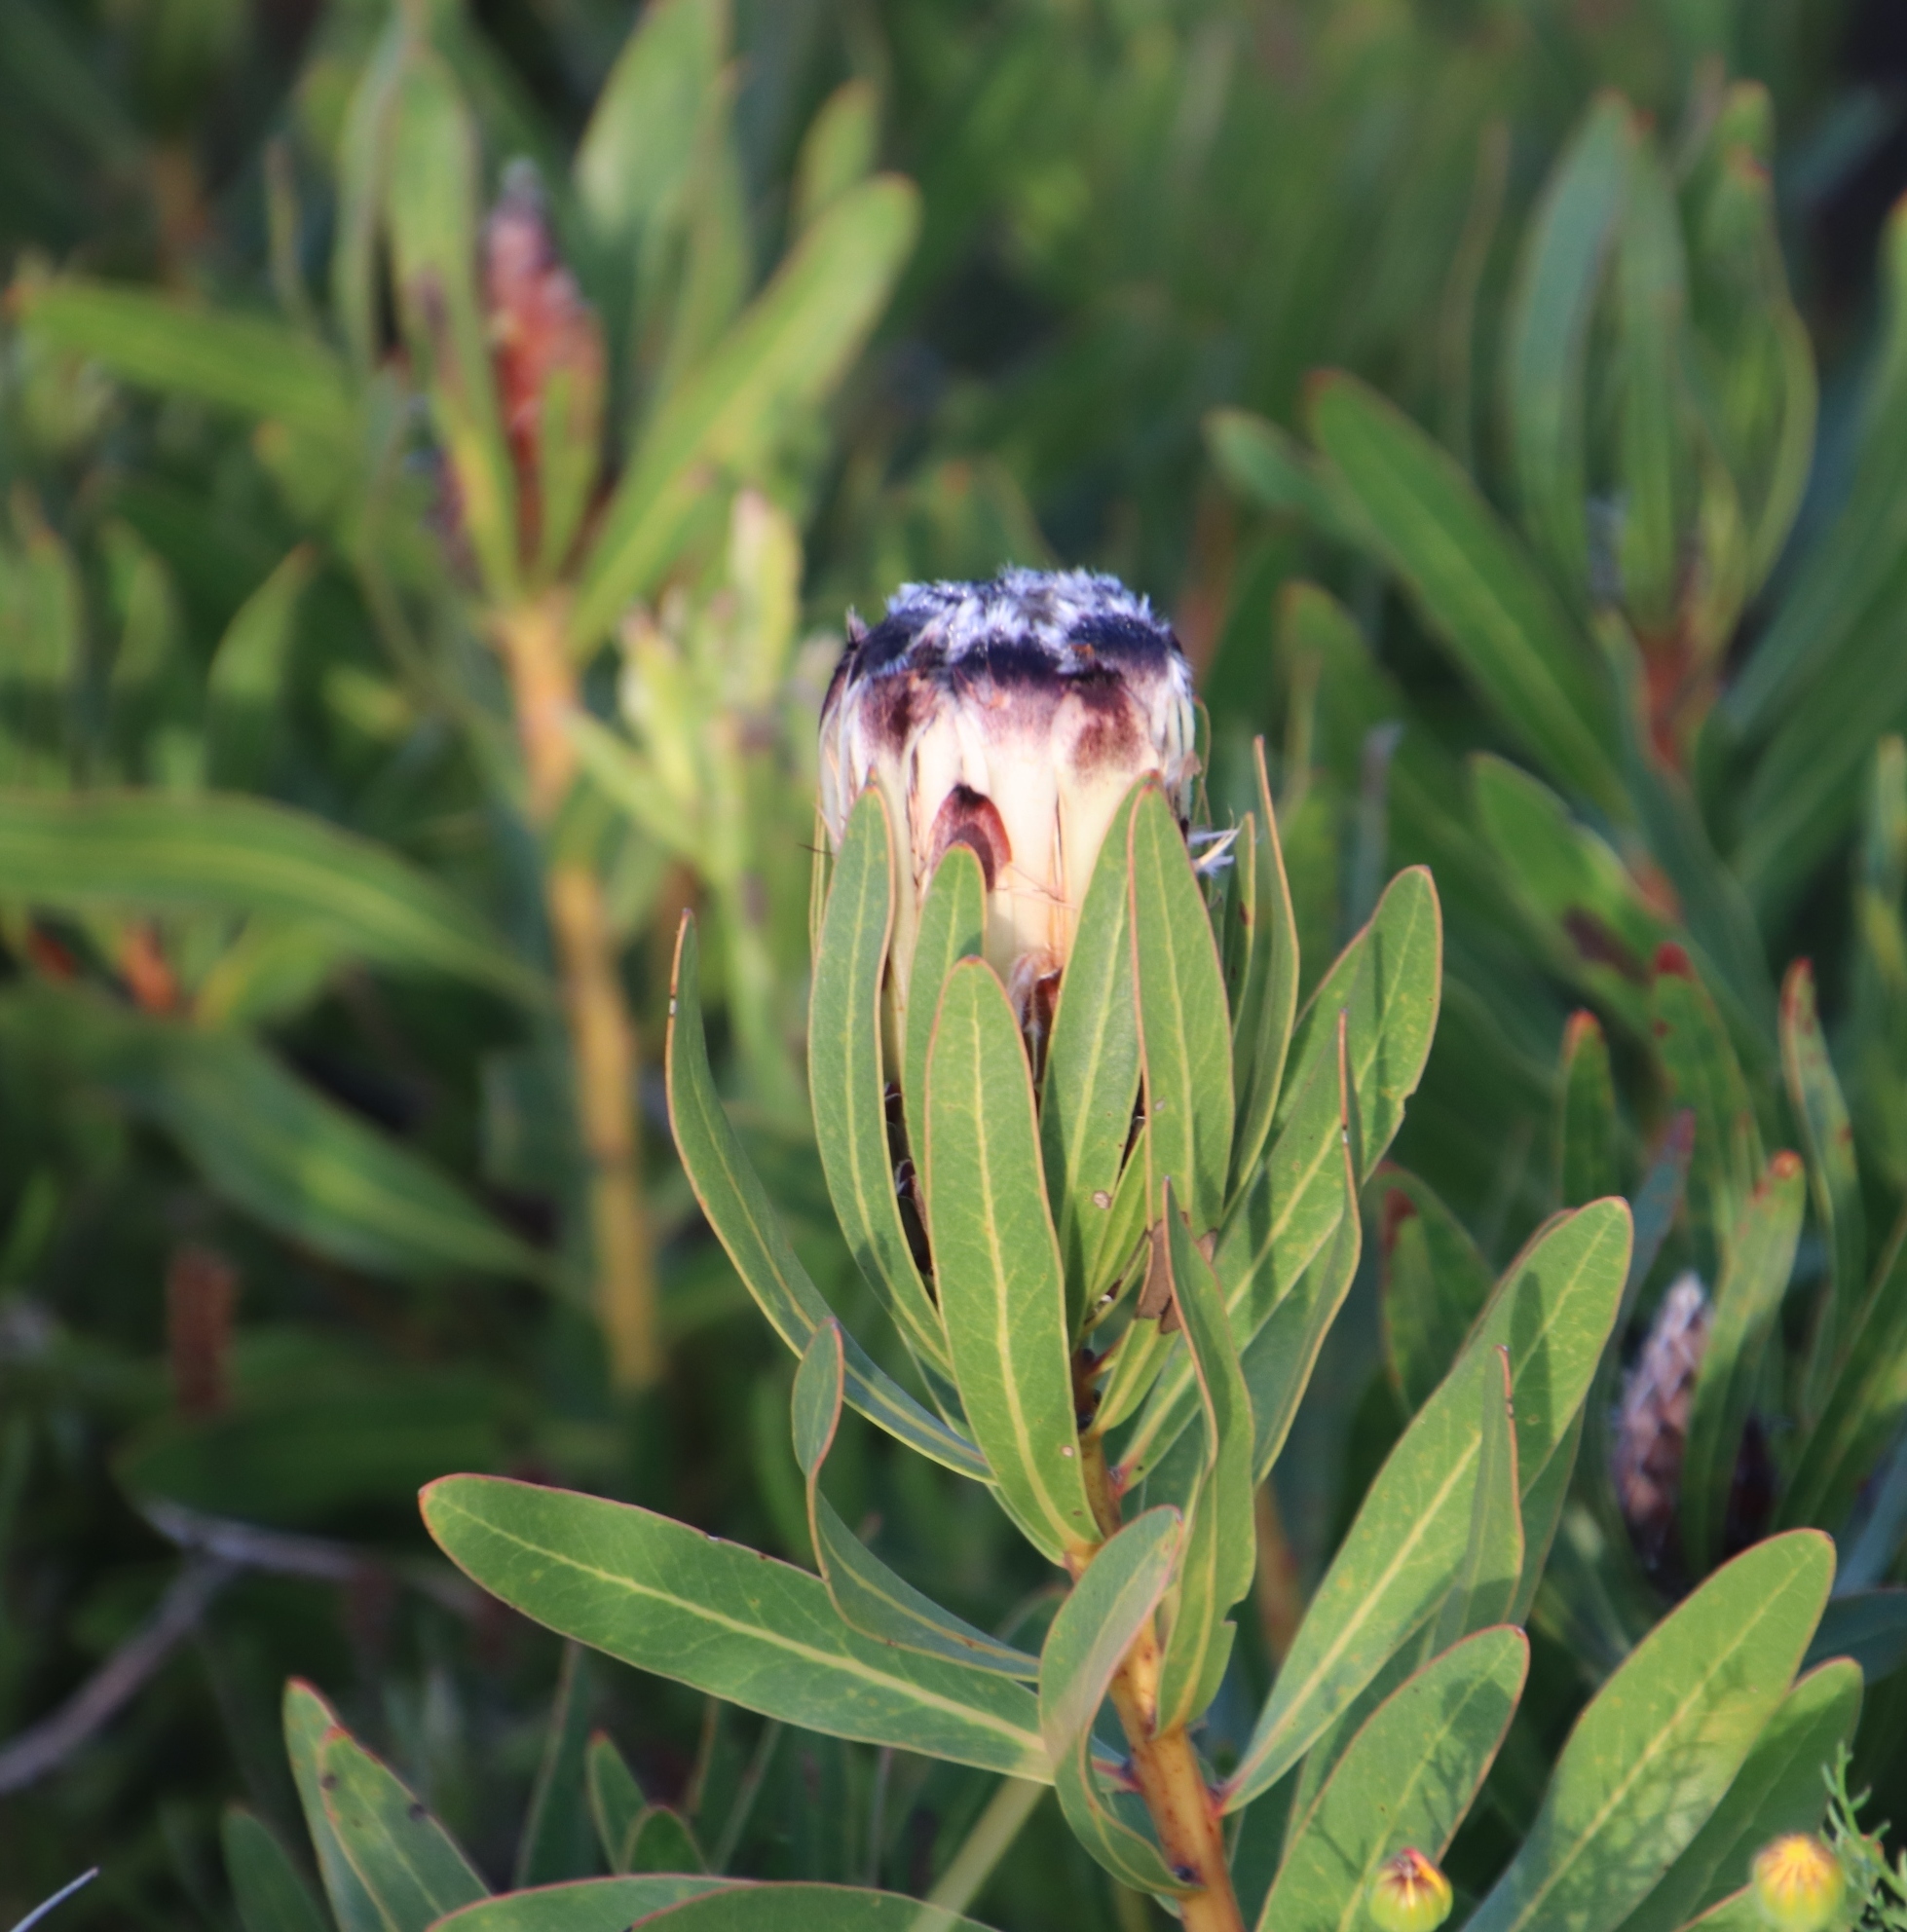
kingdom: Plantae
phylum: Tracheophyta
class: Magnoliopsida
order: Proteales
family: Proteaceae
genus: Protea
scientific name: Protea lepidocarpodendron
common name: Black-bearded protea
